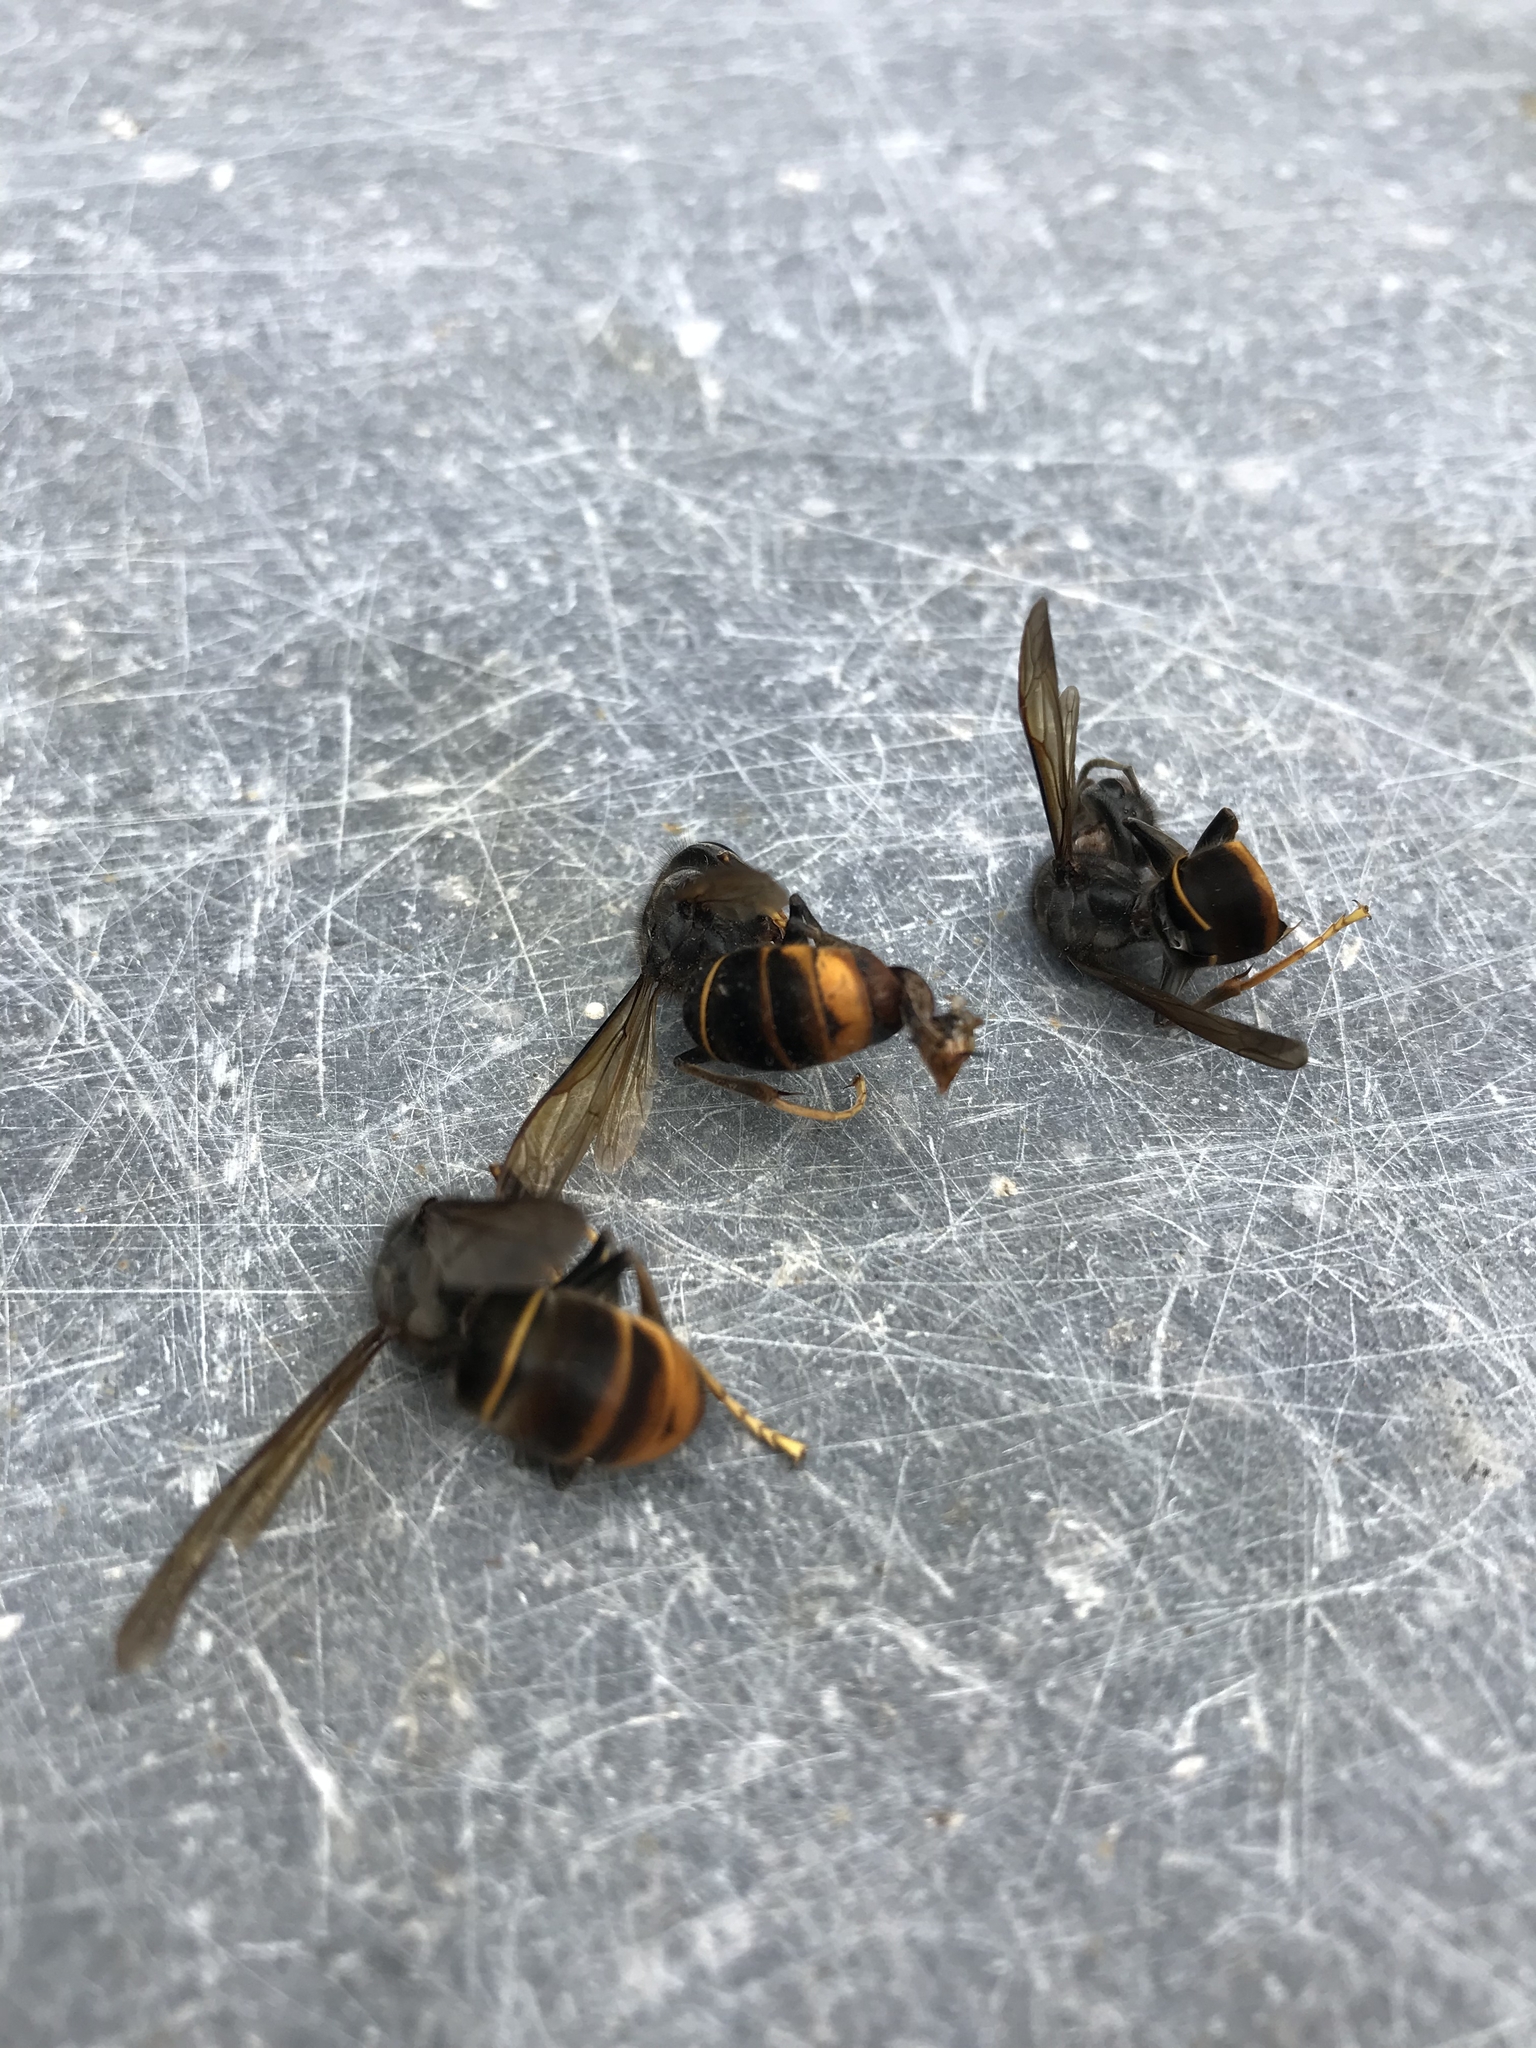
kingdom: Animalia
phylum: Arthropoda
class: Insecta
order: Hymenoptera
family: Vespidae
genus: Vespa
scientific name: Vespa velutina
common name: Asian hornet
